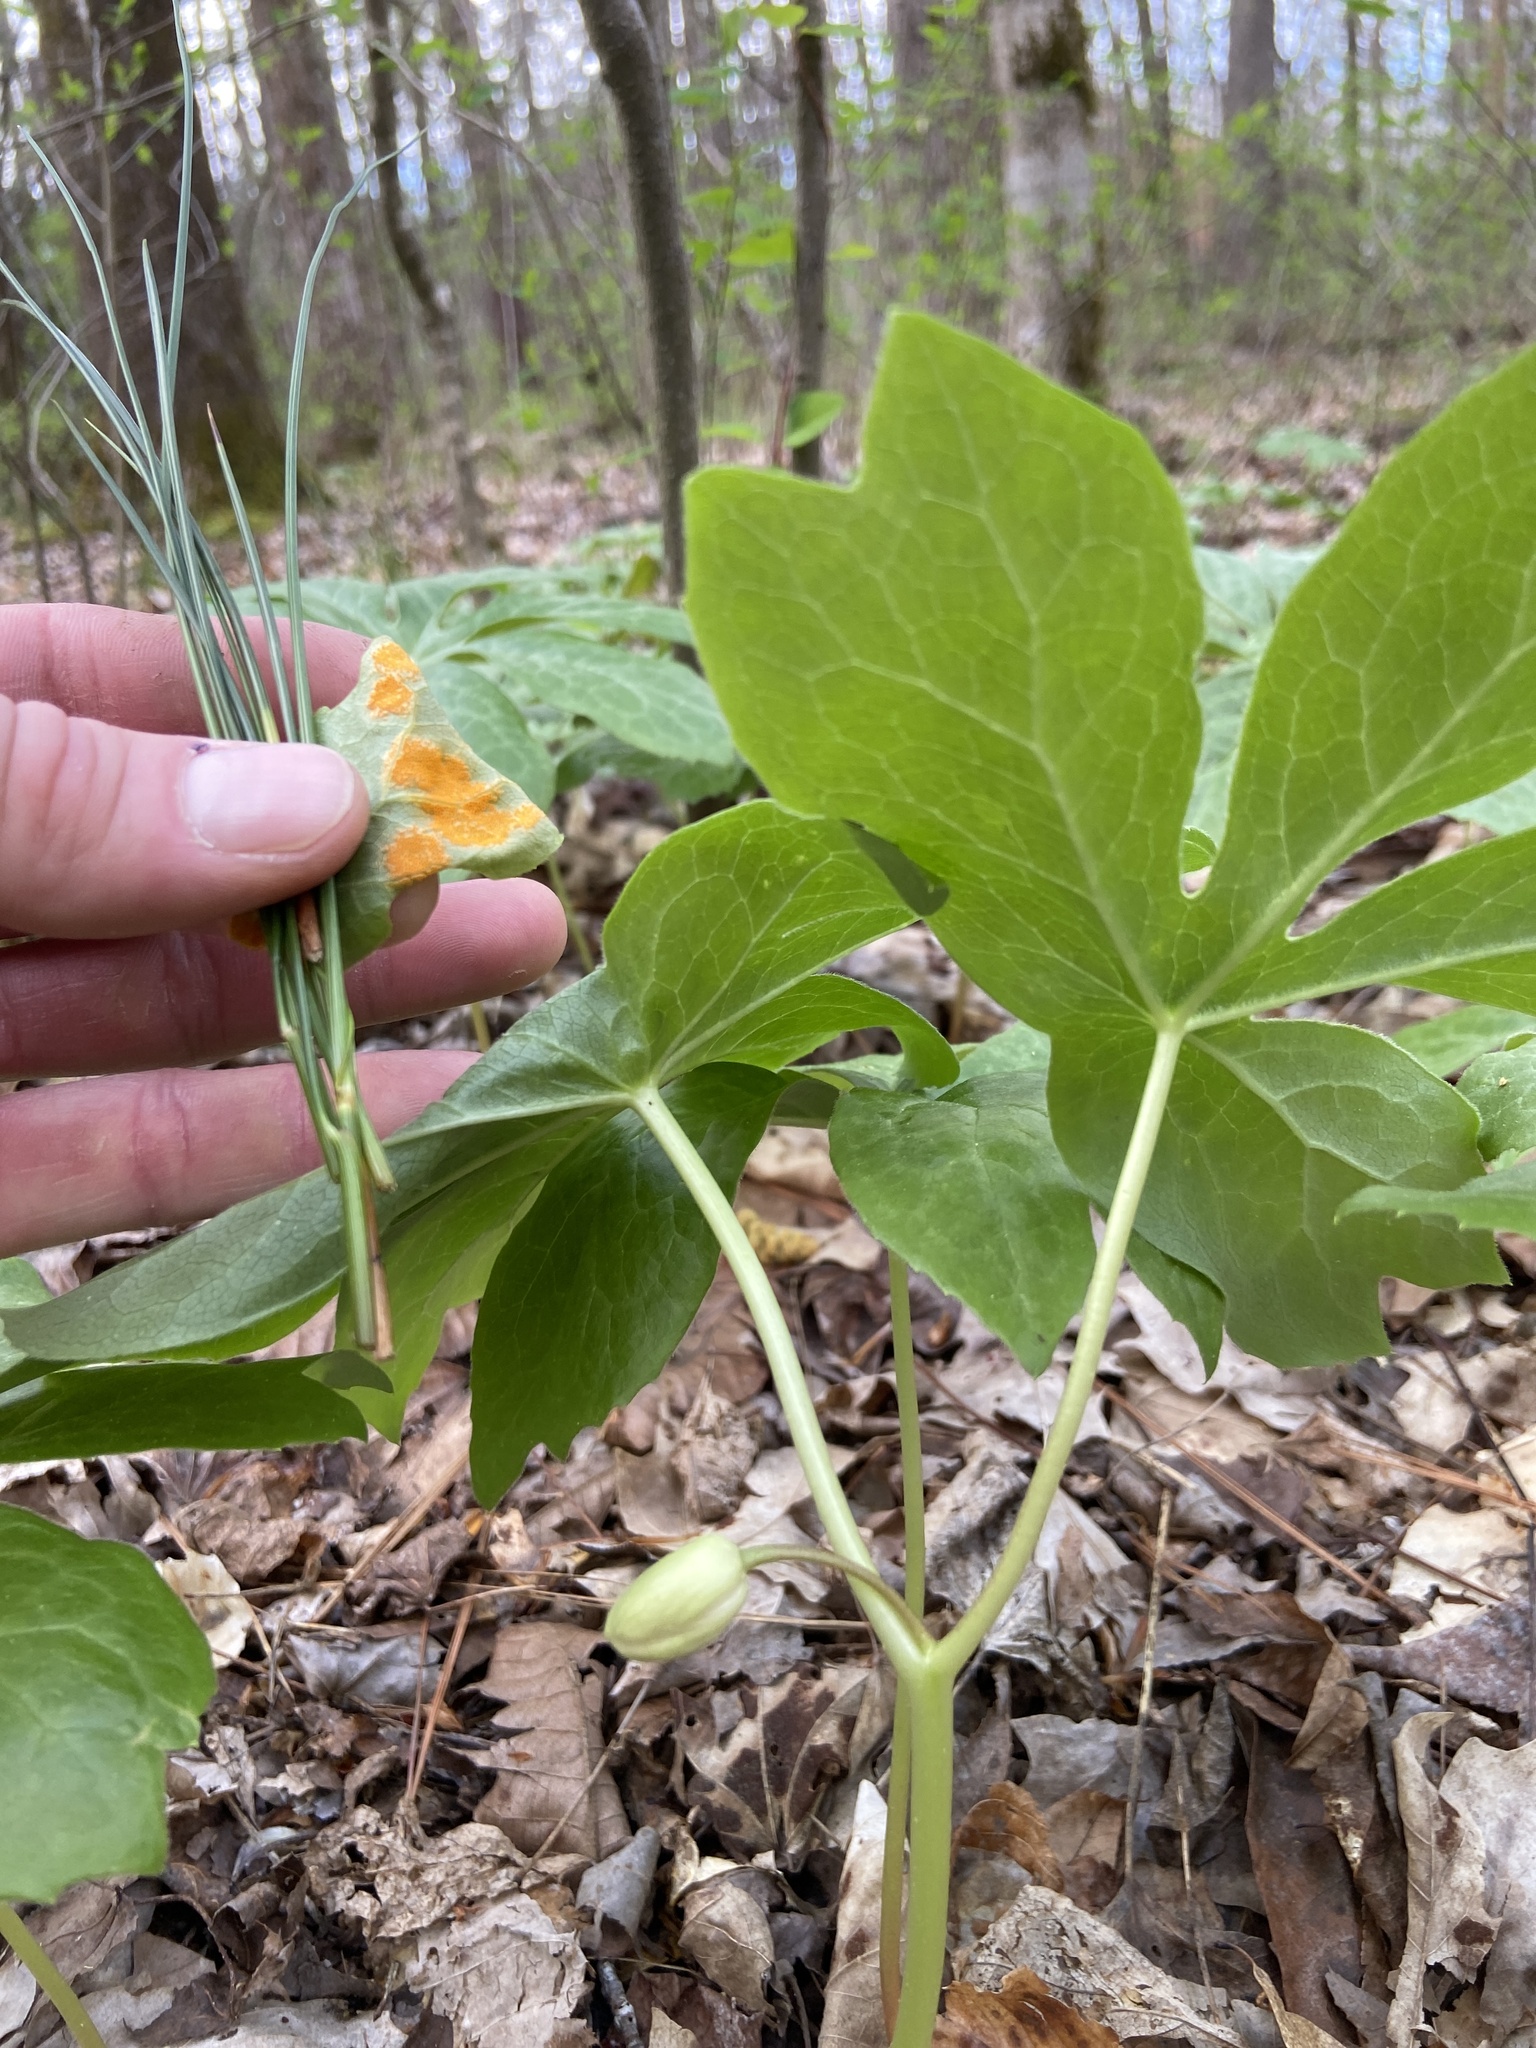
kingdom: Fungi
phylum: Basidiomycota
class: Pucciniomycetes
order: Pucciniales
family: Pucciniaceae
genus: Puccinia
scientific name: Puccinia podophylli
